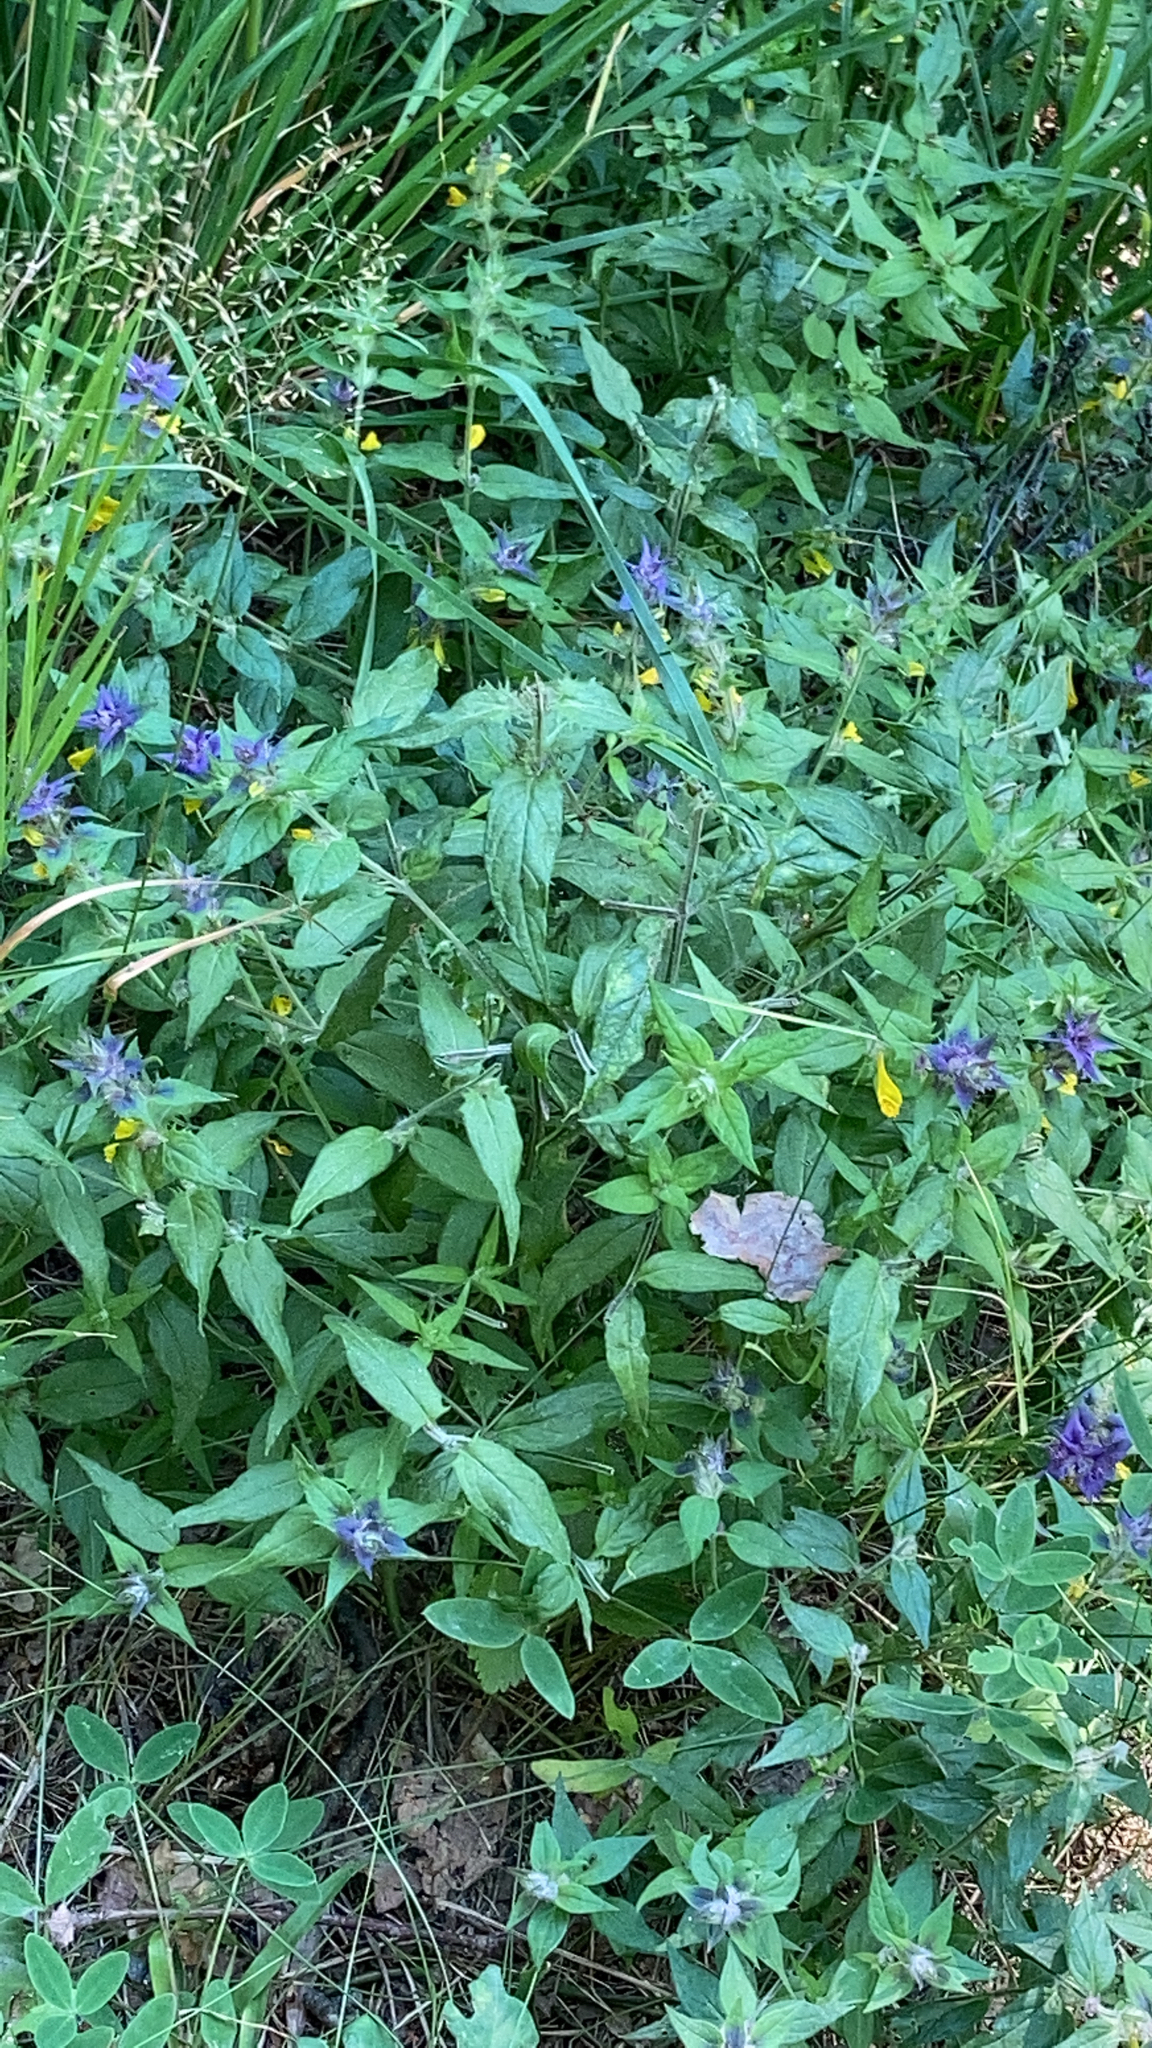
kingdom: Plantae
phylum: Tracheophyta
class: Magnoliopsida
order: Lamiales
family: Orobanchaceae
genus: Melampyrum
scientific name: Melampyrum nemorosum
